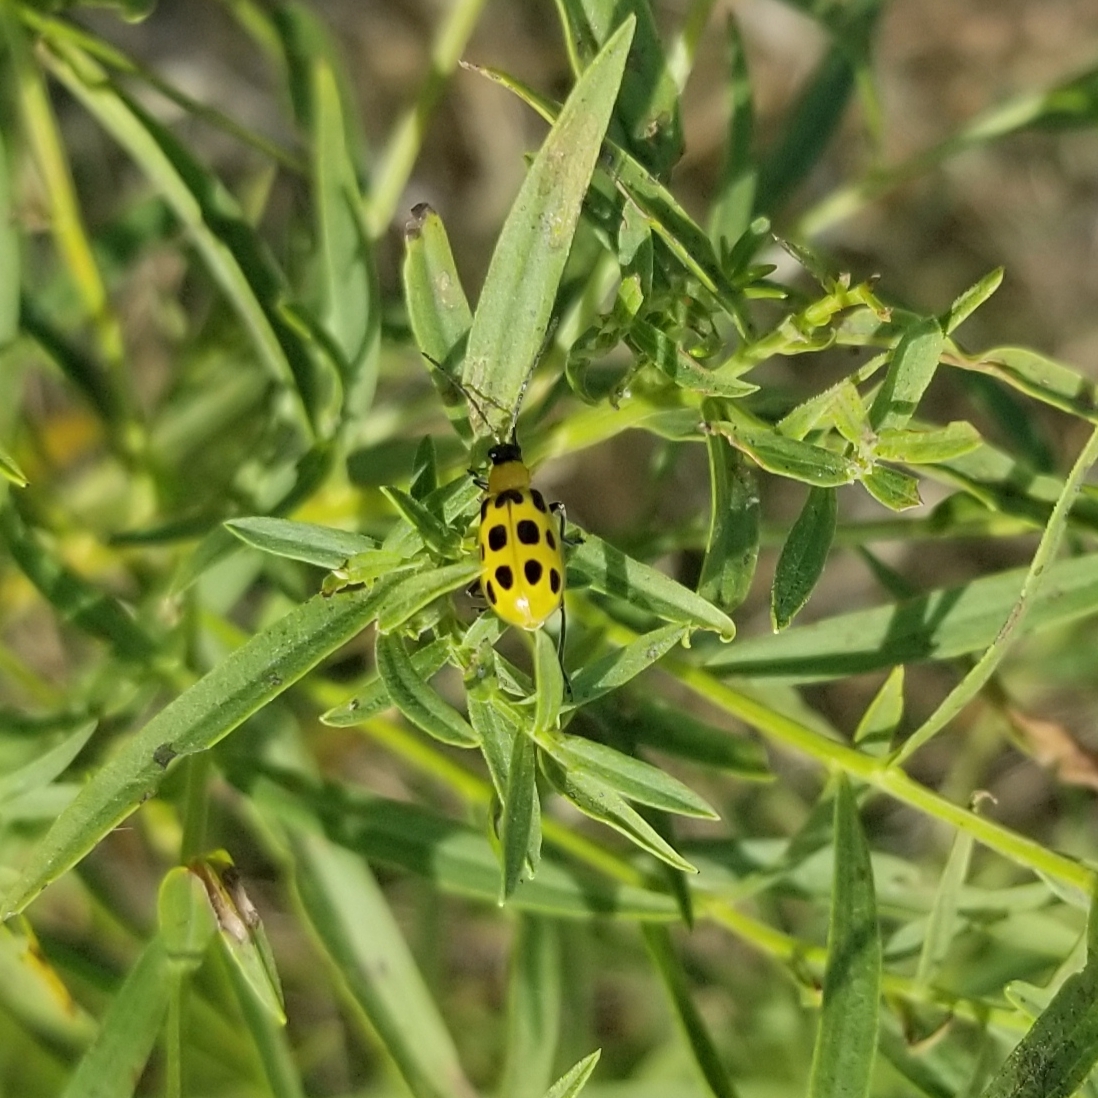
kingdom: Animalia
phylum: Arthropoda
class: Insecta
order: Coleoptera
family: Chrysomelidae
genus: Diabrotica
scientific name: Diabrotica undecimpunctata
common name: Spotted cucumber beetle
